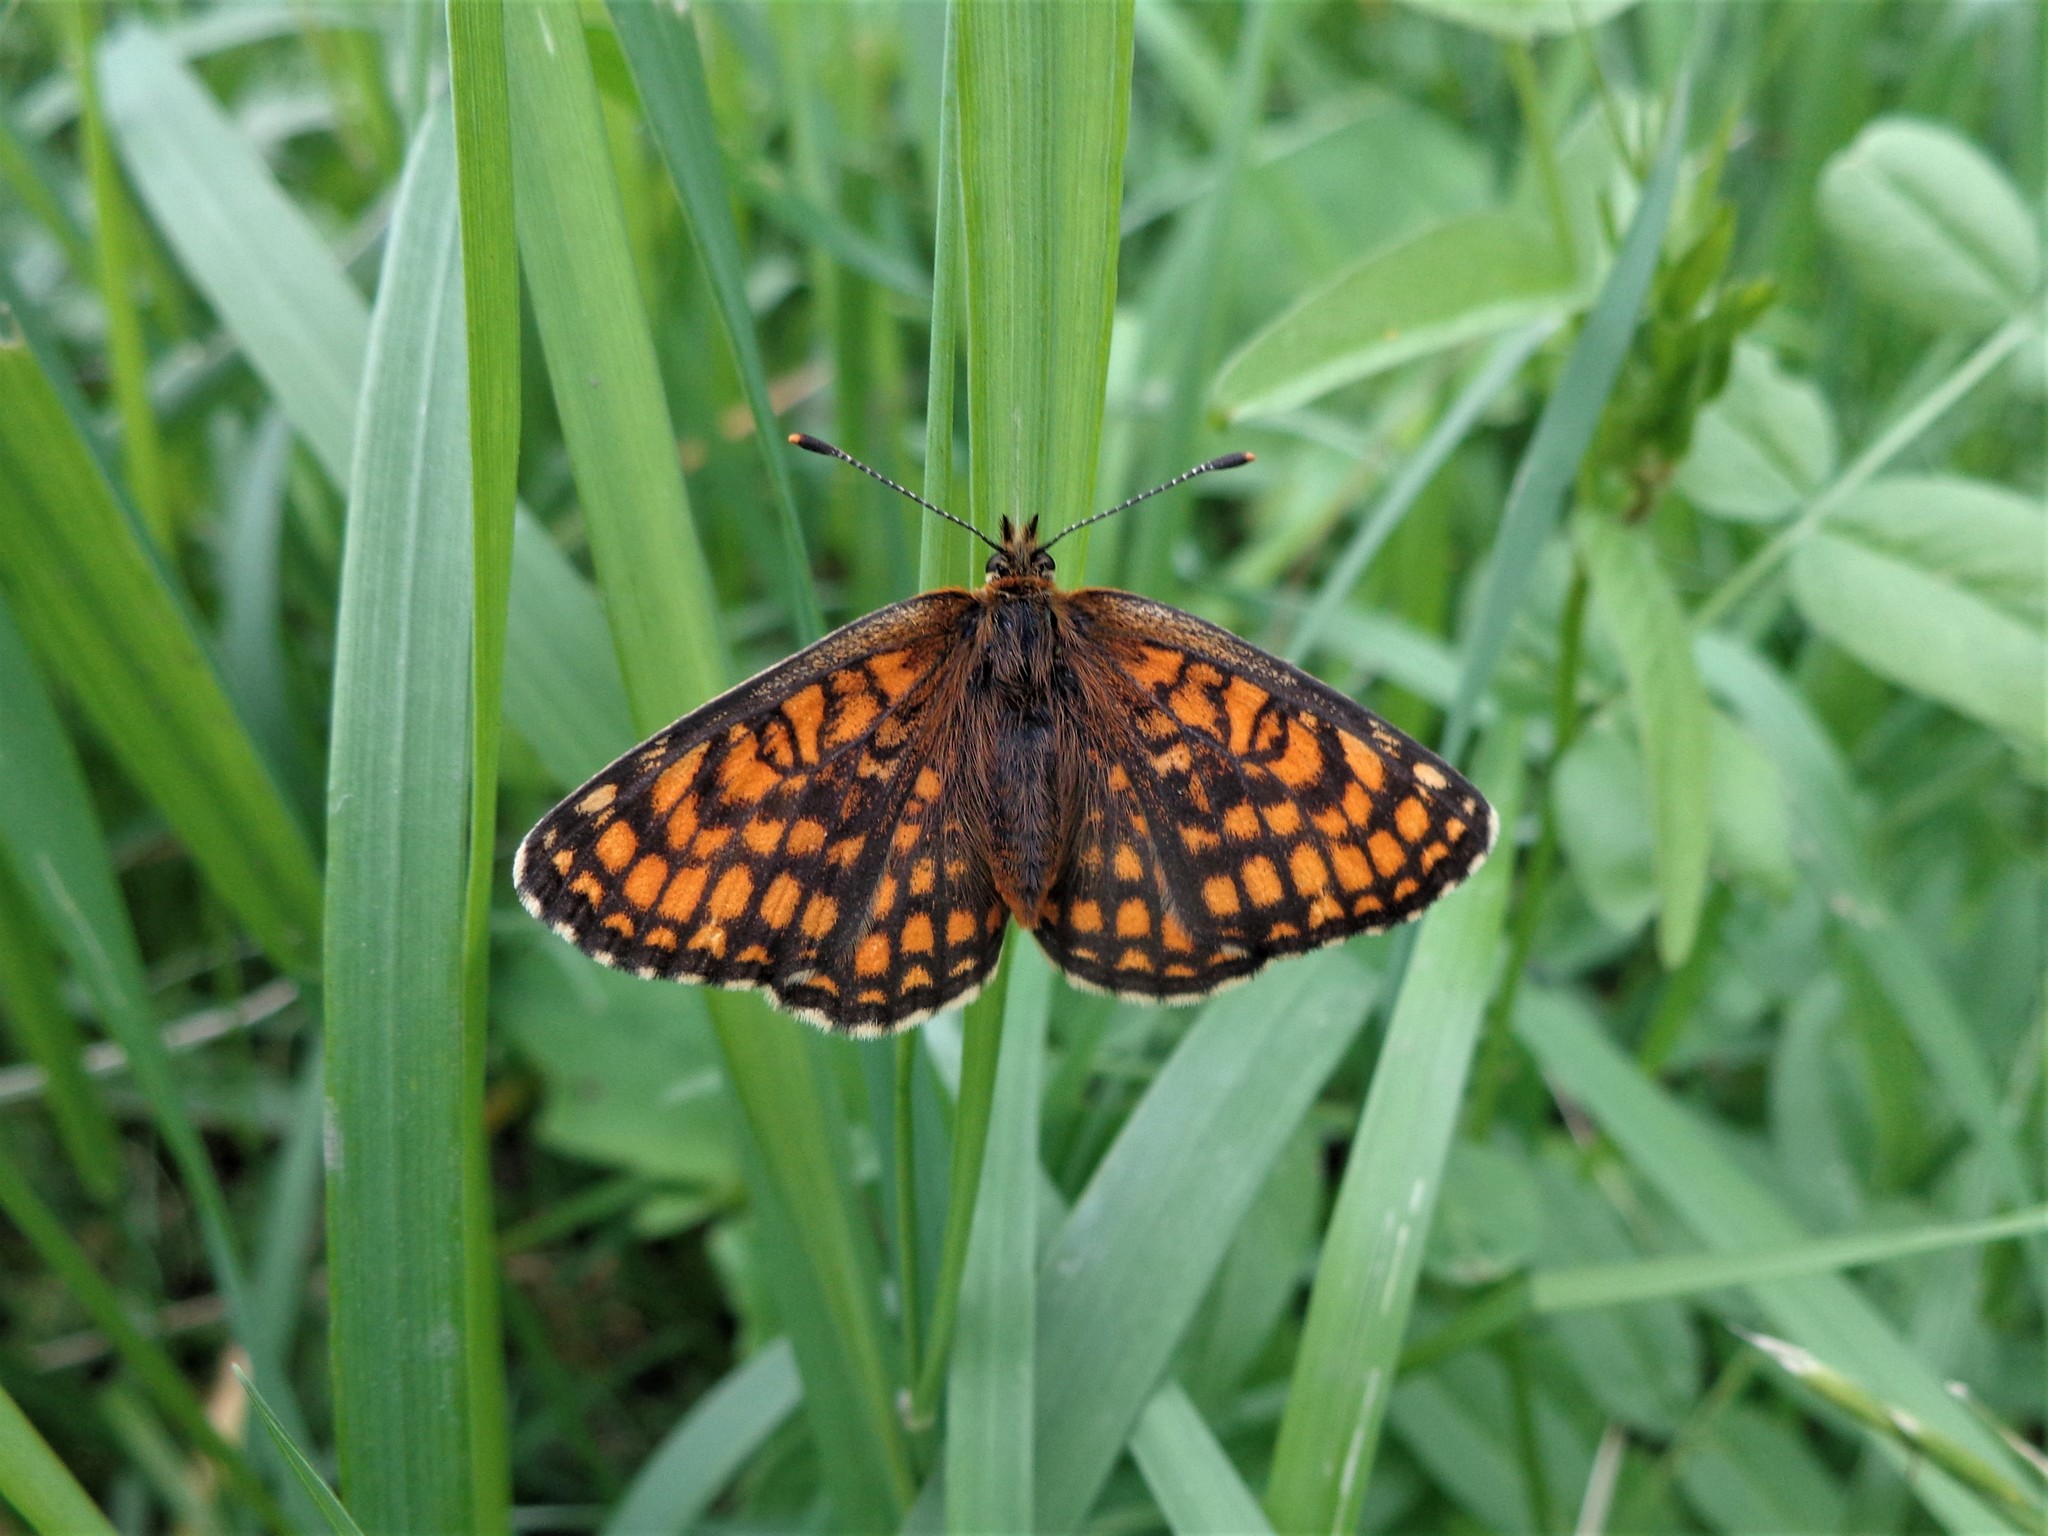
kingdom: Animalia
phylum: Arthropoda
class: Insecta
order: Lepidoptera
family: Nymphalidae
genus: Melitaea
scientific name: Melitaea athalia
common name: Heath fritillary
